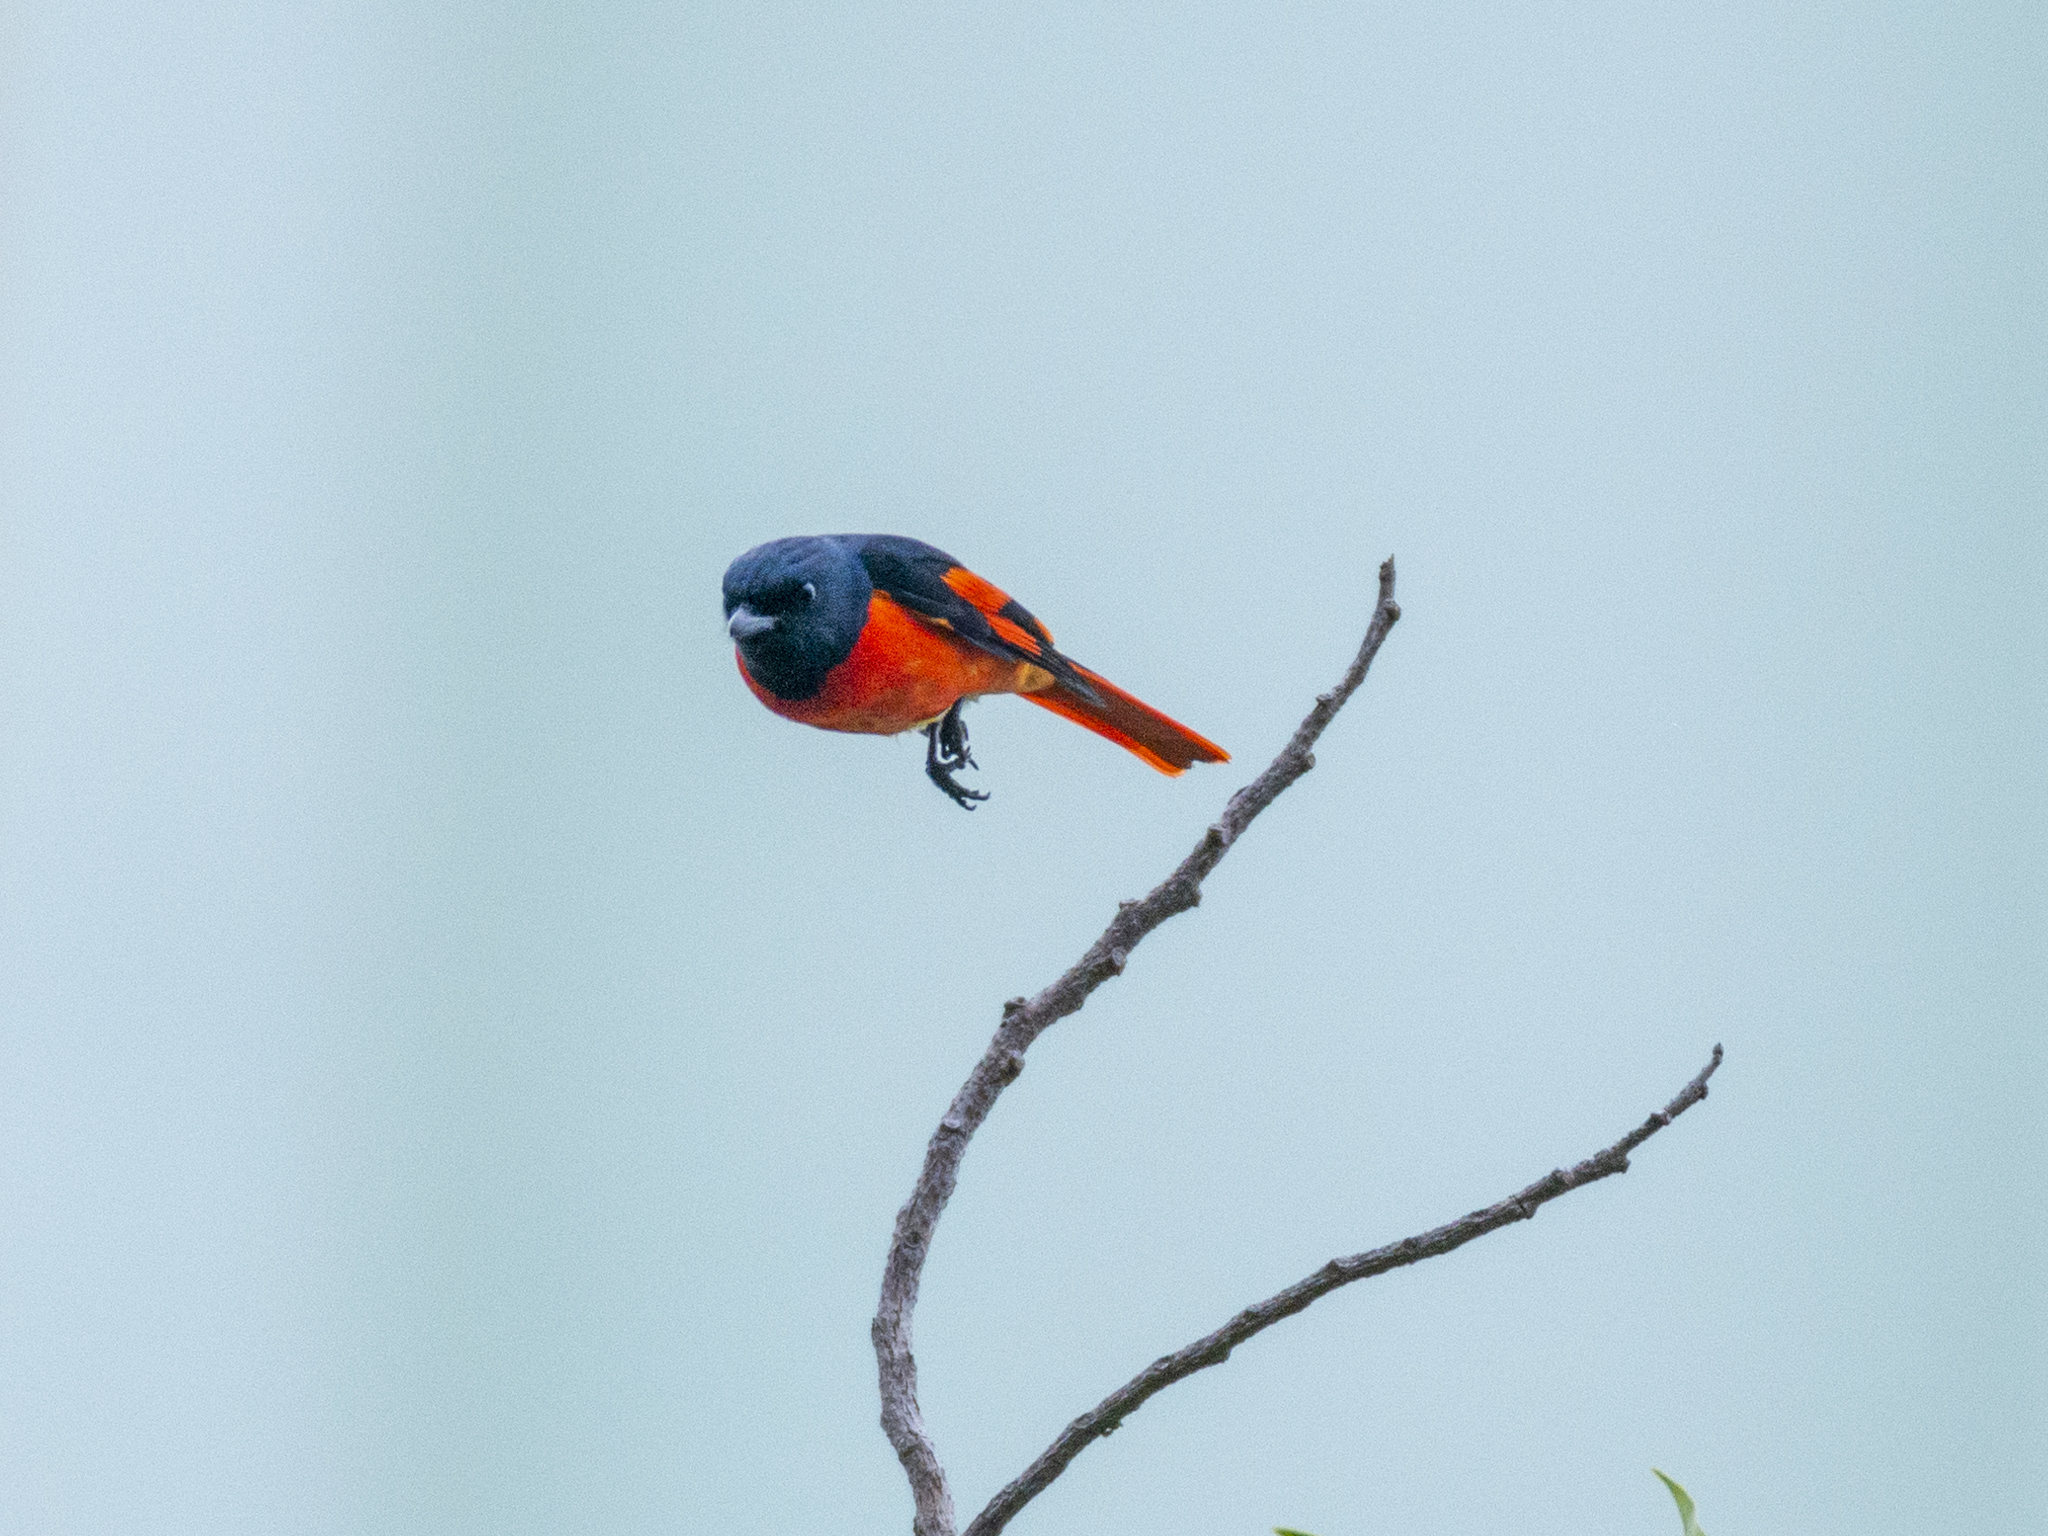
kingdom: Animalia
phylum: Chordata
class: Aves
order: Passeriformes
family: Campephagidae
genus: Pericrocotus
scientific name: Pericrocotus speciosus
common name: Scarlet minivet
